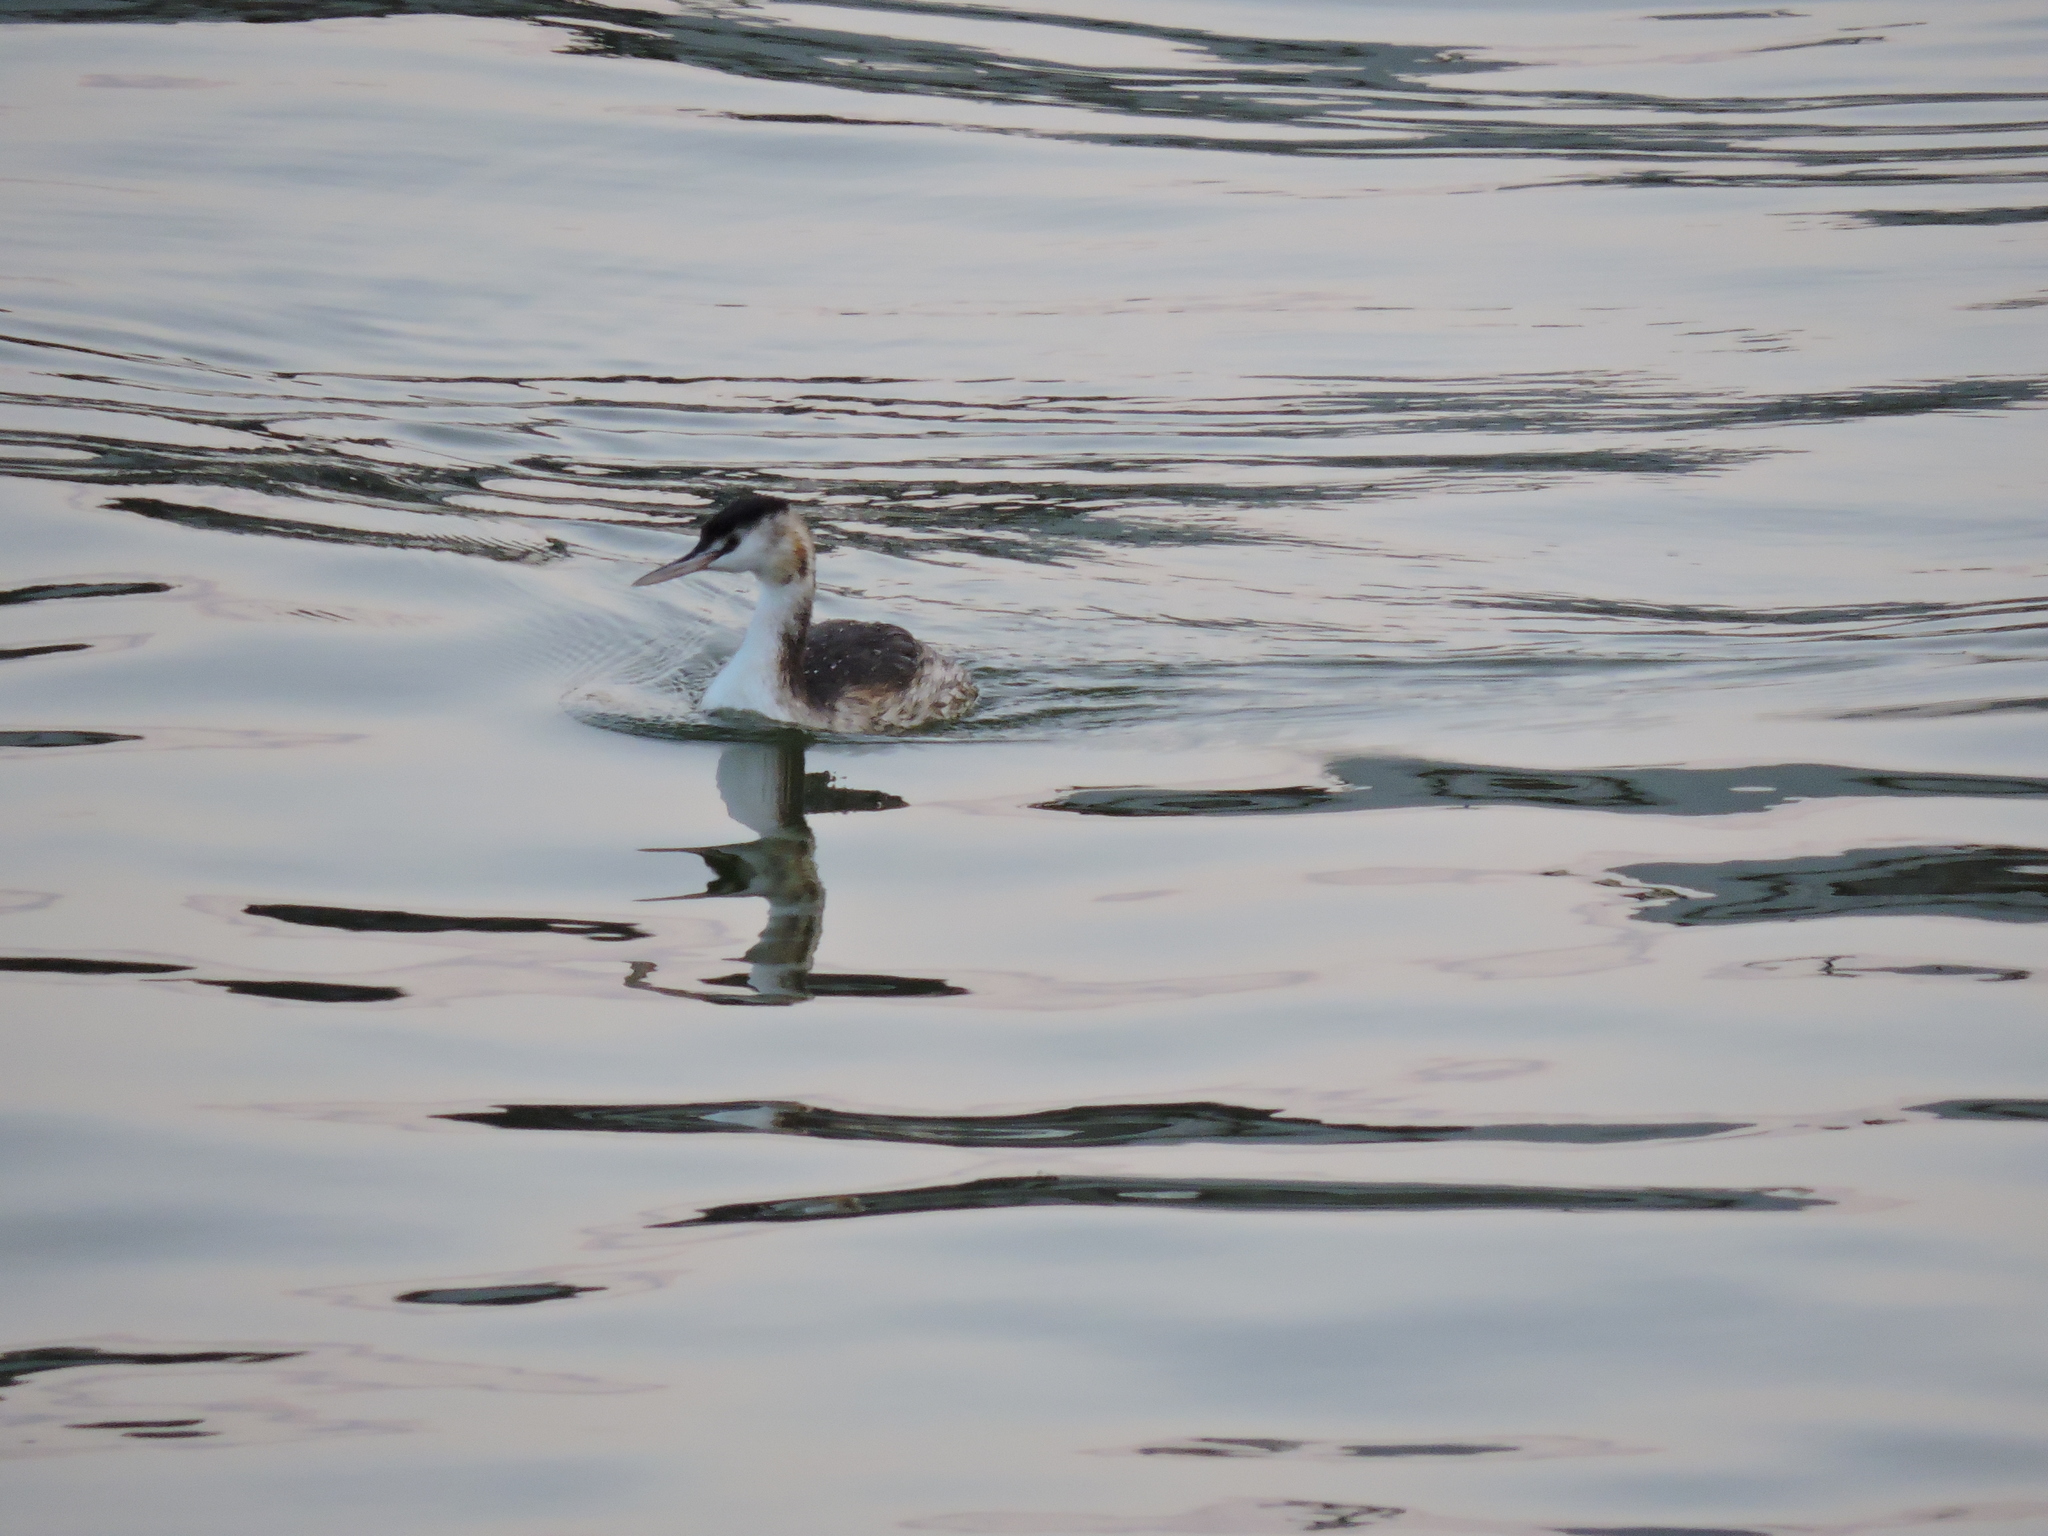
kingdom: Animalia
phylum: Chordata
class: Aves
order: Podicipediformes
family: Podicipedidae
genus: Podiceps
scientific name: Podiceps cristatus
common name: Great crested grebe
